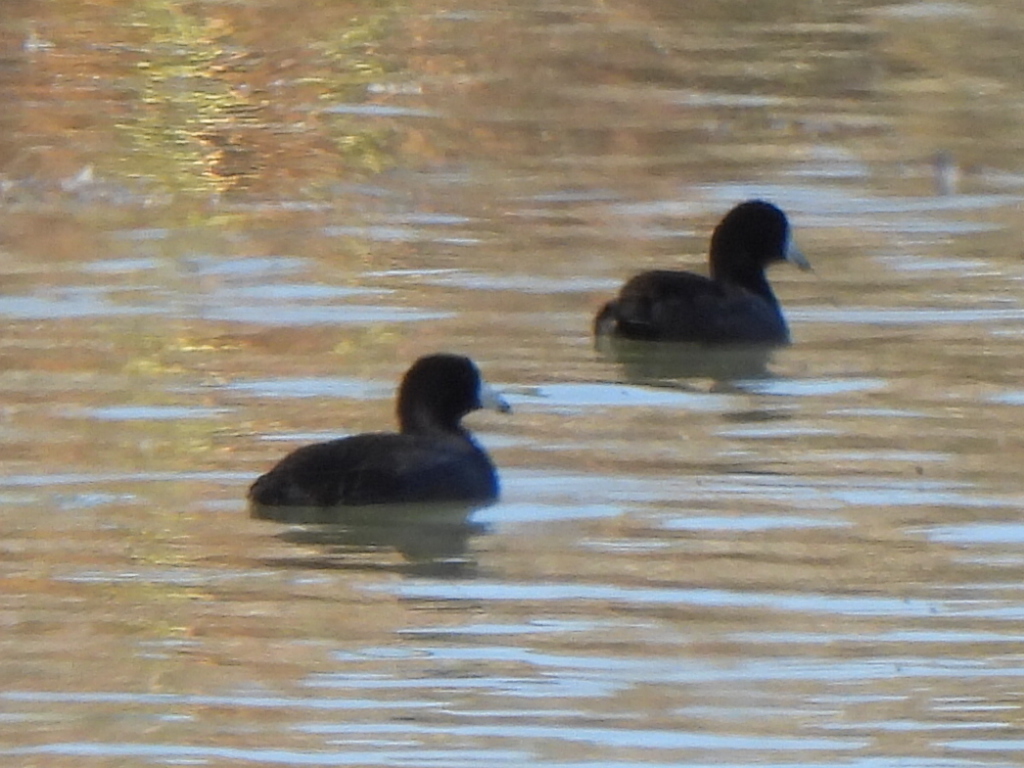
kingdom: Animalia
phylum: Chordata
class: Aves
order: Gruiformes
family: Rallidae
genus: Fulica
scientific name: Fulica americana
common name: American coot
